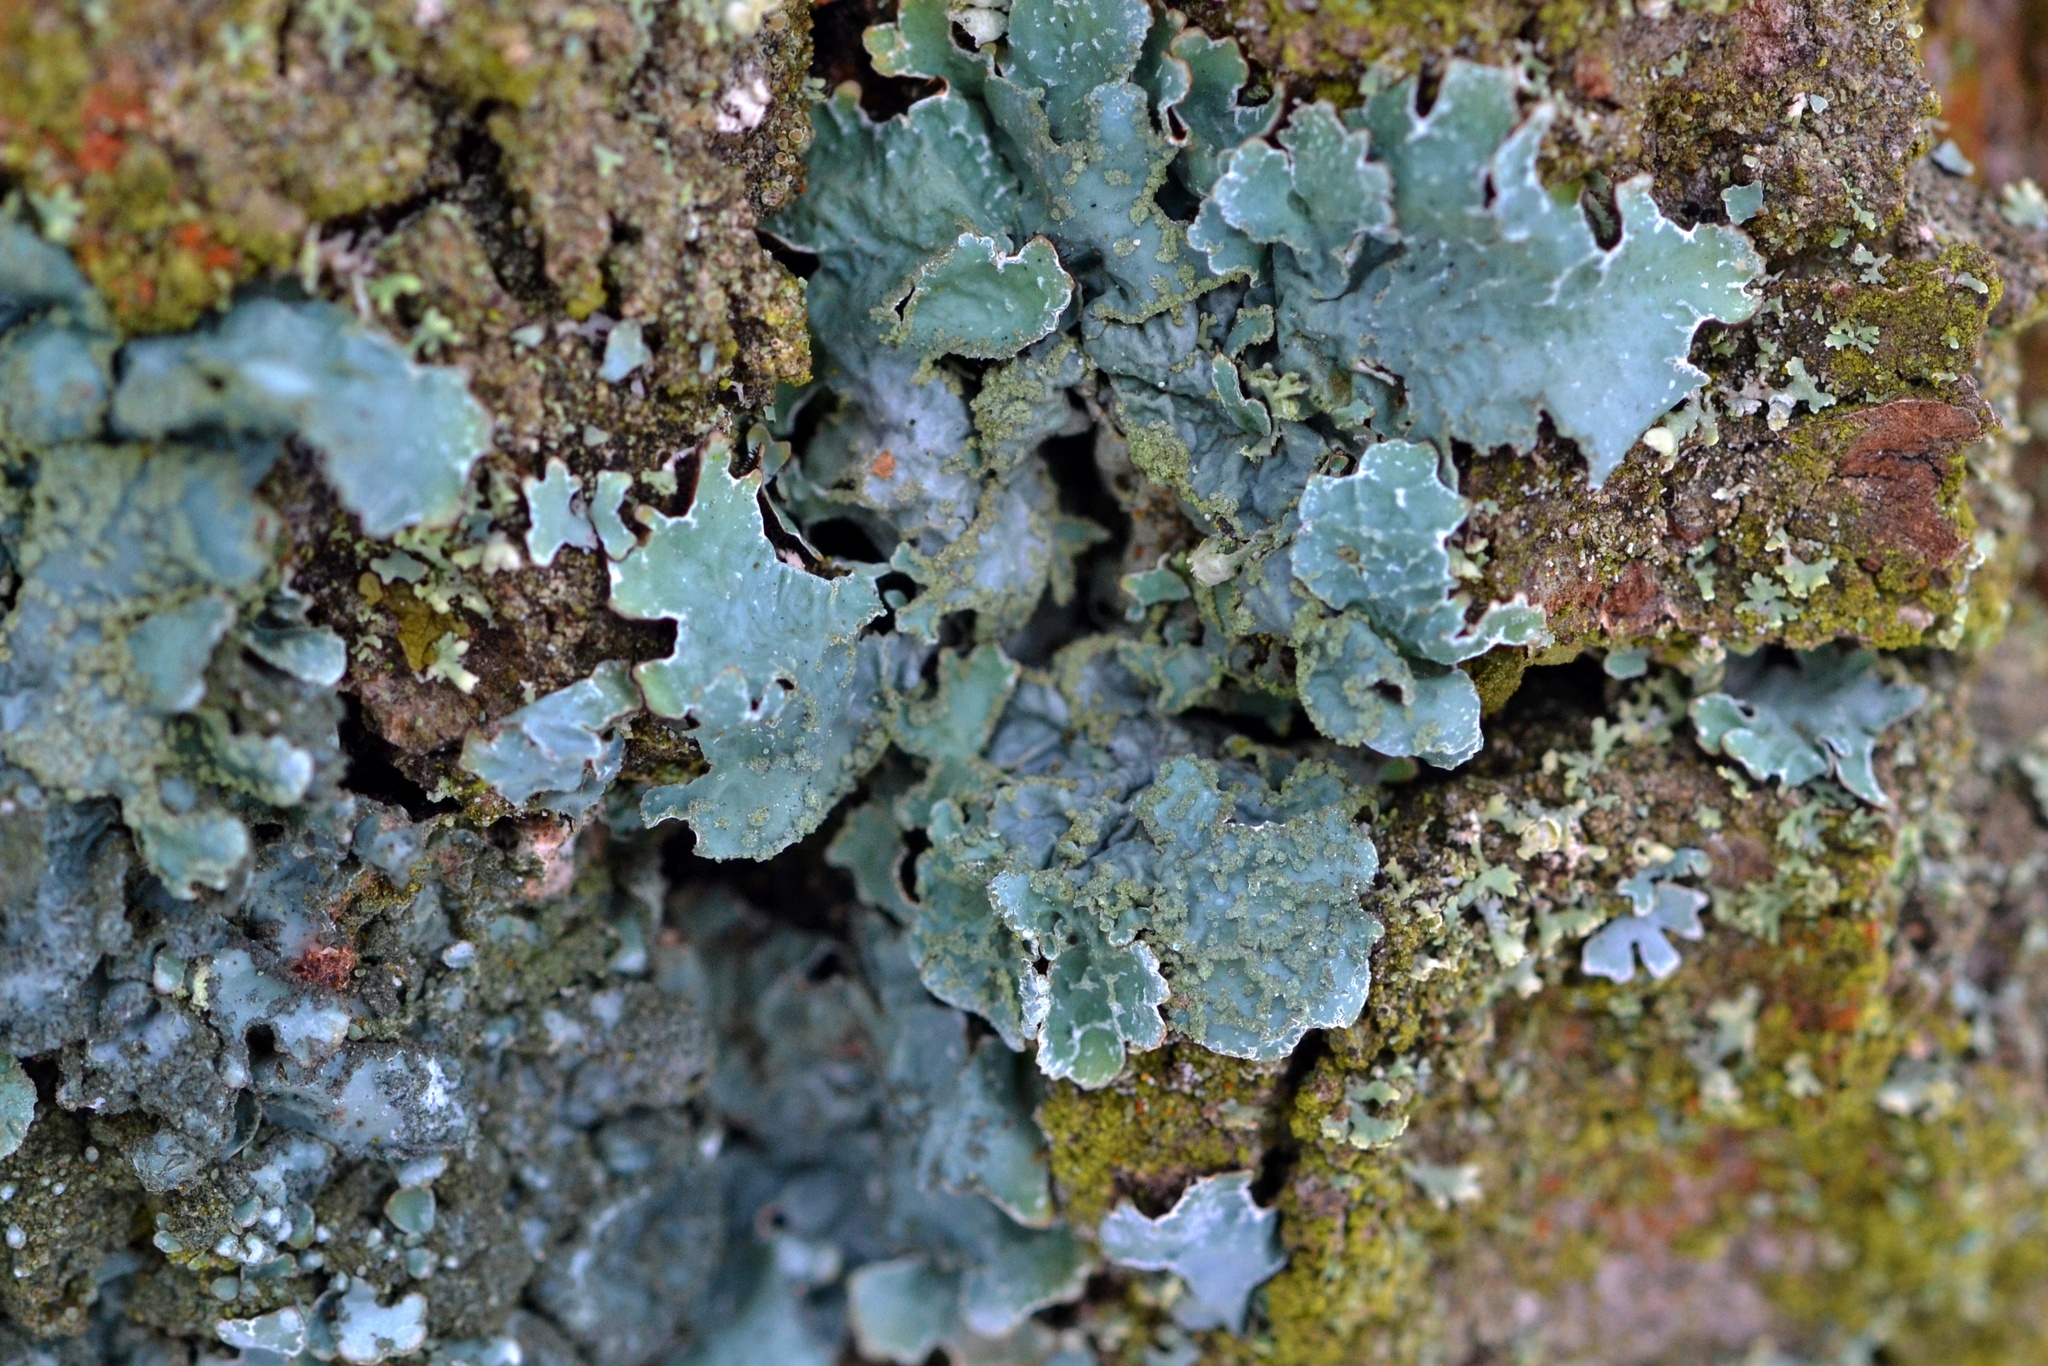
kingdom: Fungi
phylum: Ascomycota
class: Lecanoromycetes
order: Lecanorales
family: Parmeliaceae
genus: Parmelia
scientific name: Parmelia sulcata
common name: Netted shield lichen
